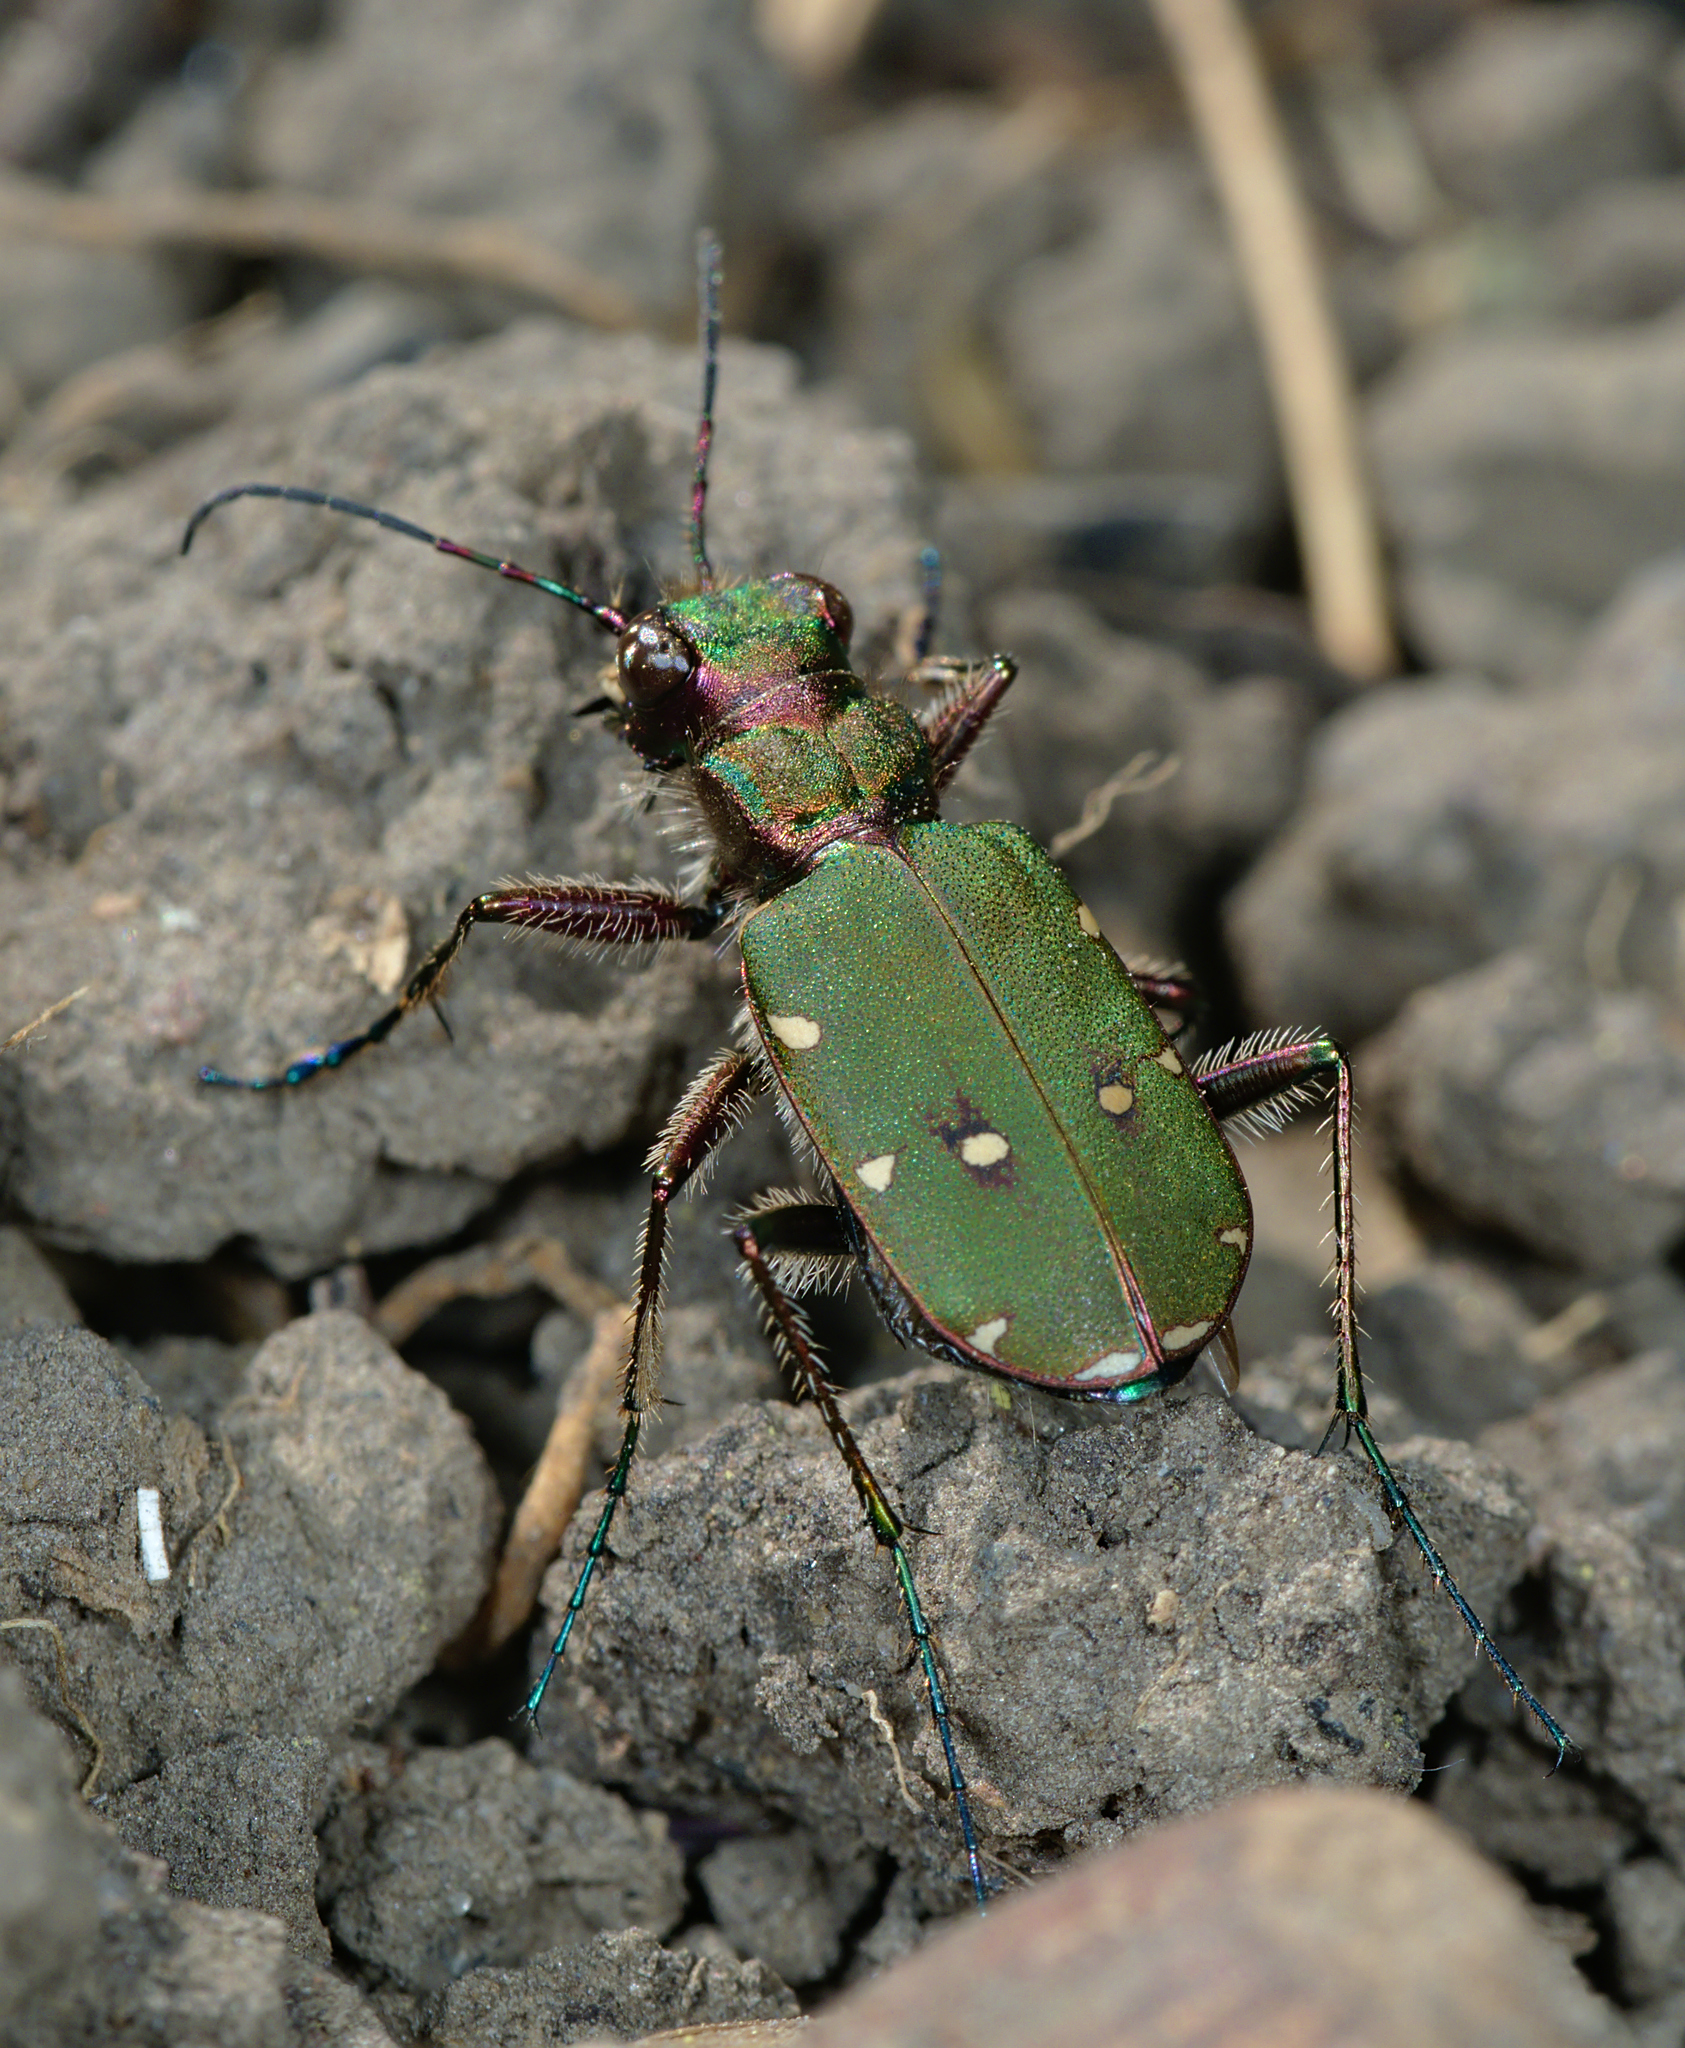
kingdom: Animalia
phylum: Arthropoda
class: Insecta
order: Coleoptera
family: Carabidae
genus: Cicindela
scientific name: Cicindela campestris
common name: Common tiger beetle
